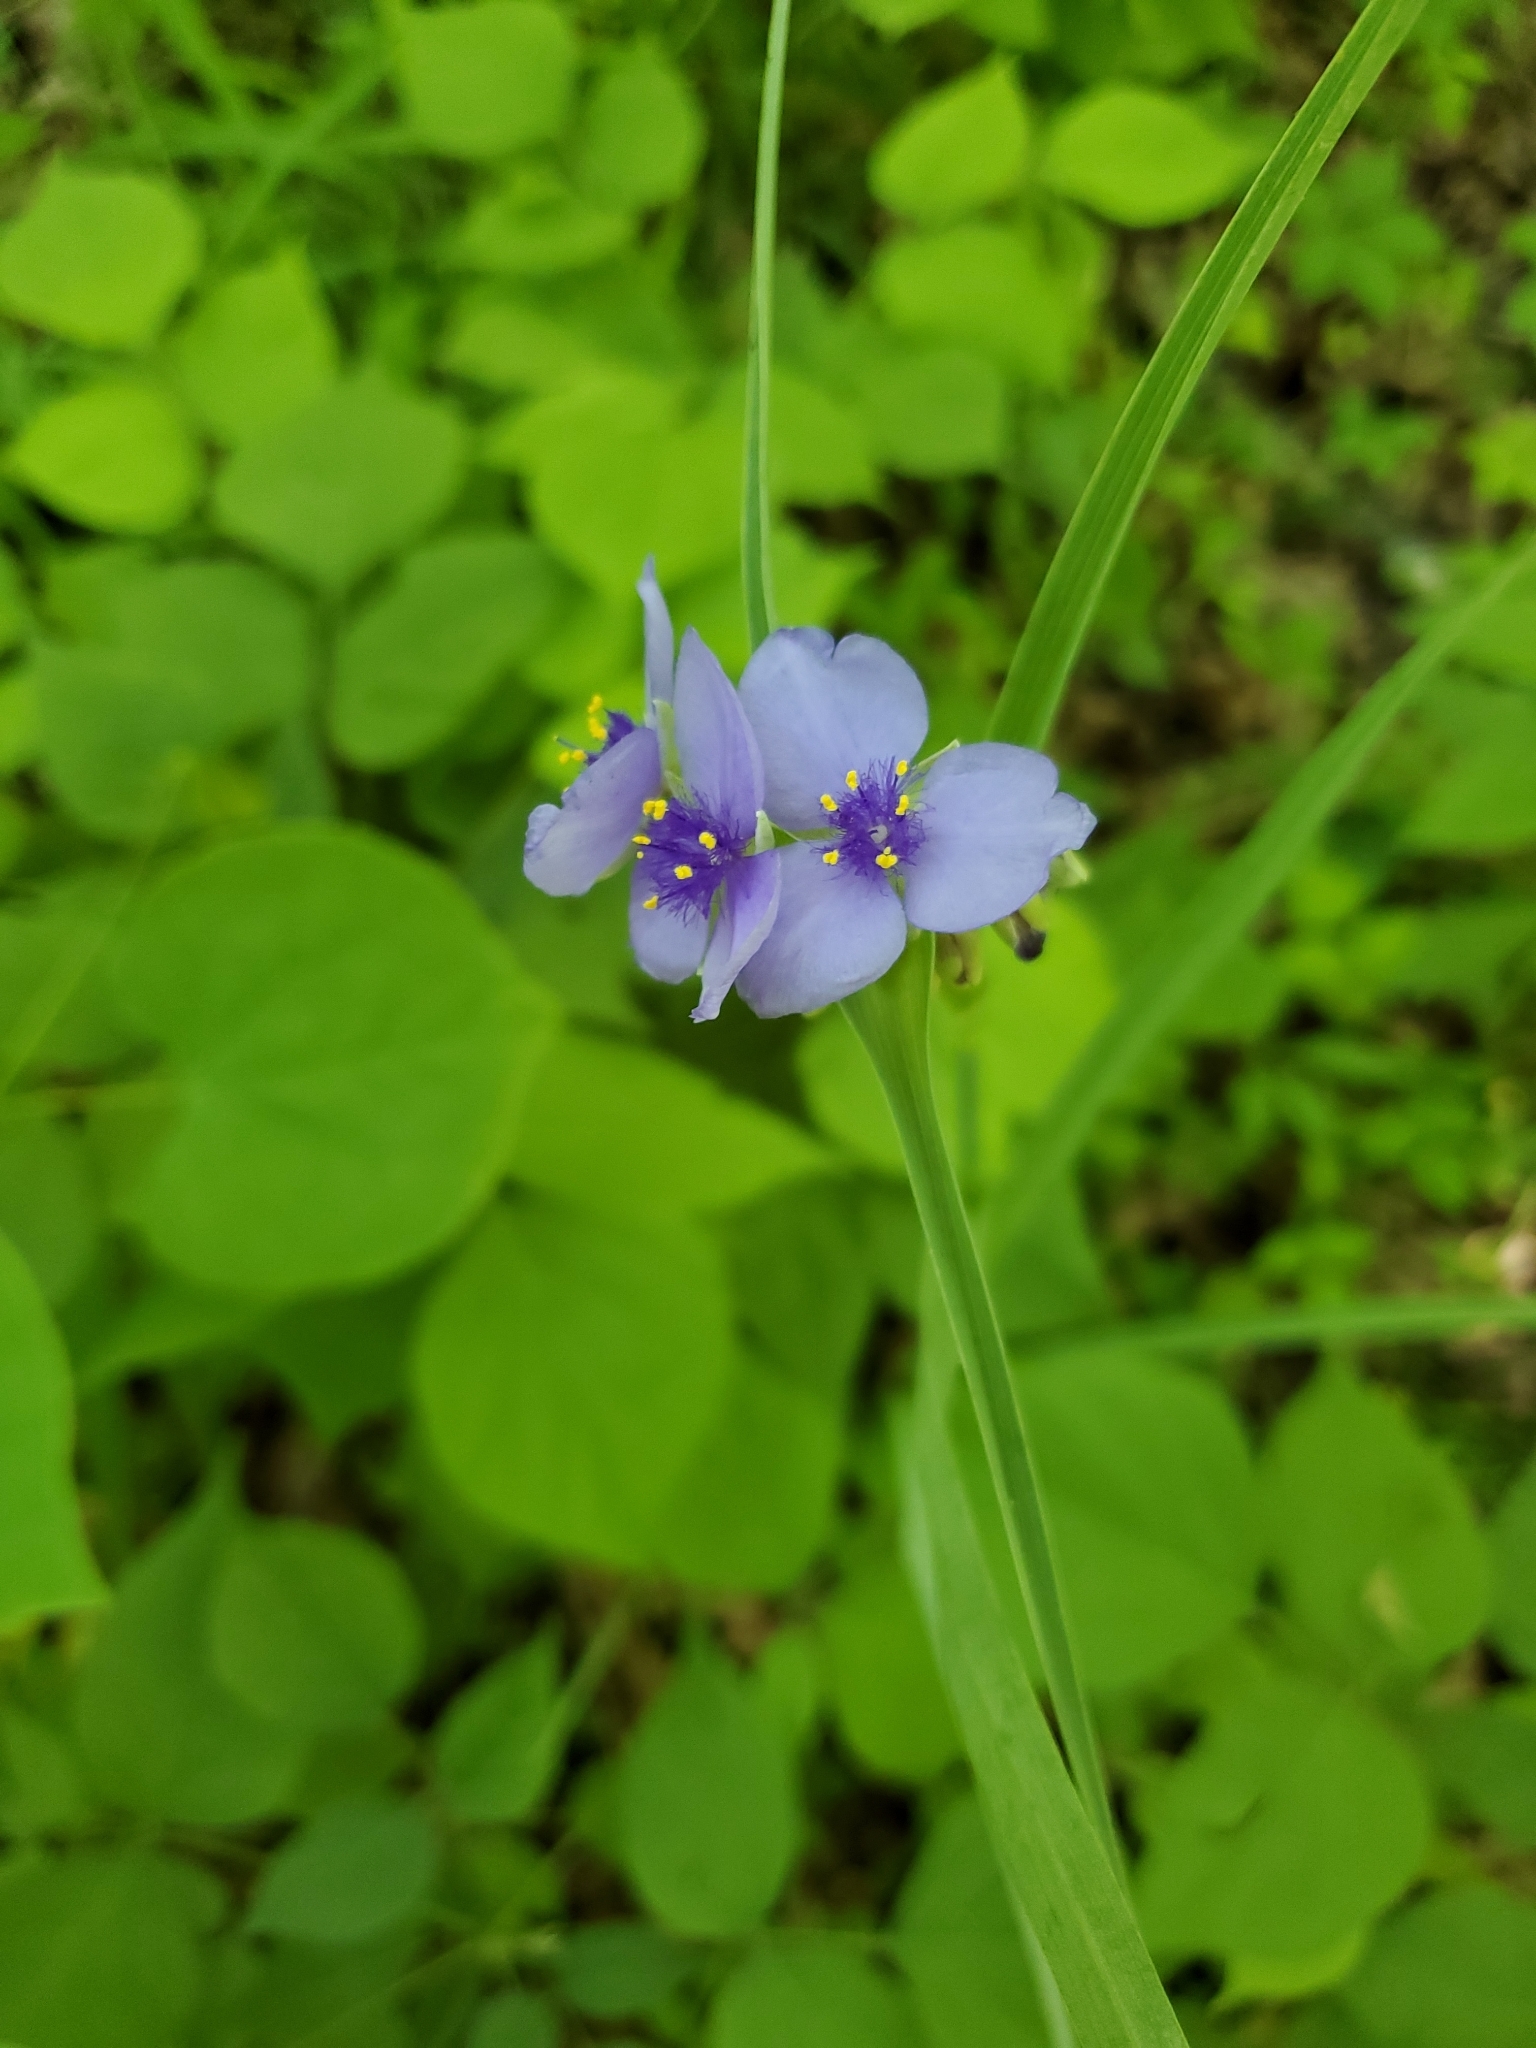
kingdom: Plantae
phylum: Tracheophyta
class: Liliopsida
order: Commelinales
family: Commelinaceae
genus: Tradescantia
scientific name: Tradescantia ohiensis
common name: Ohio spiderwort
